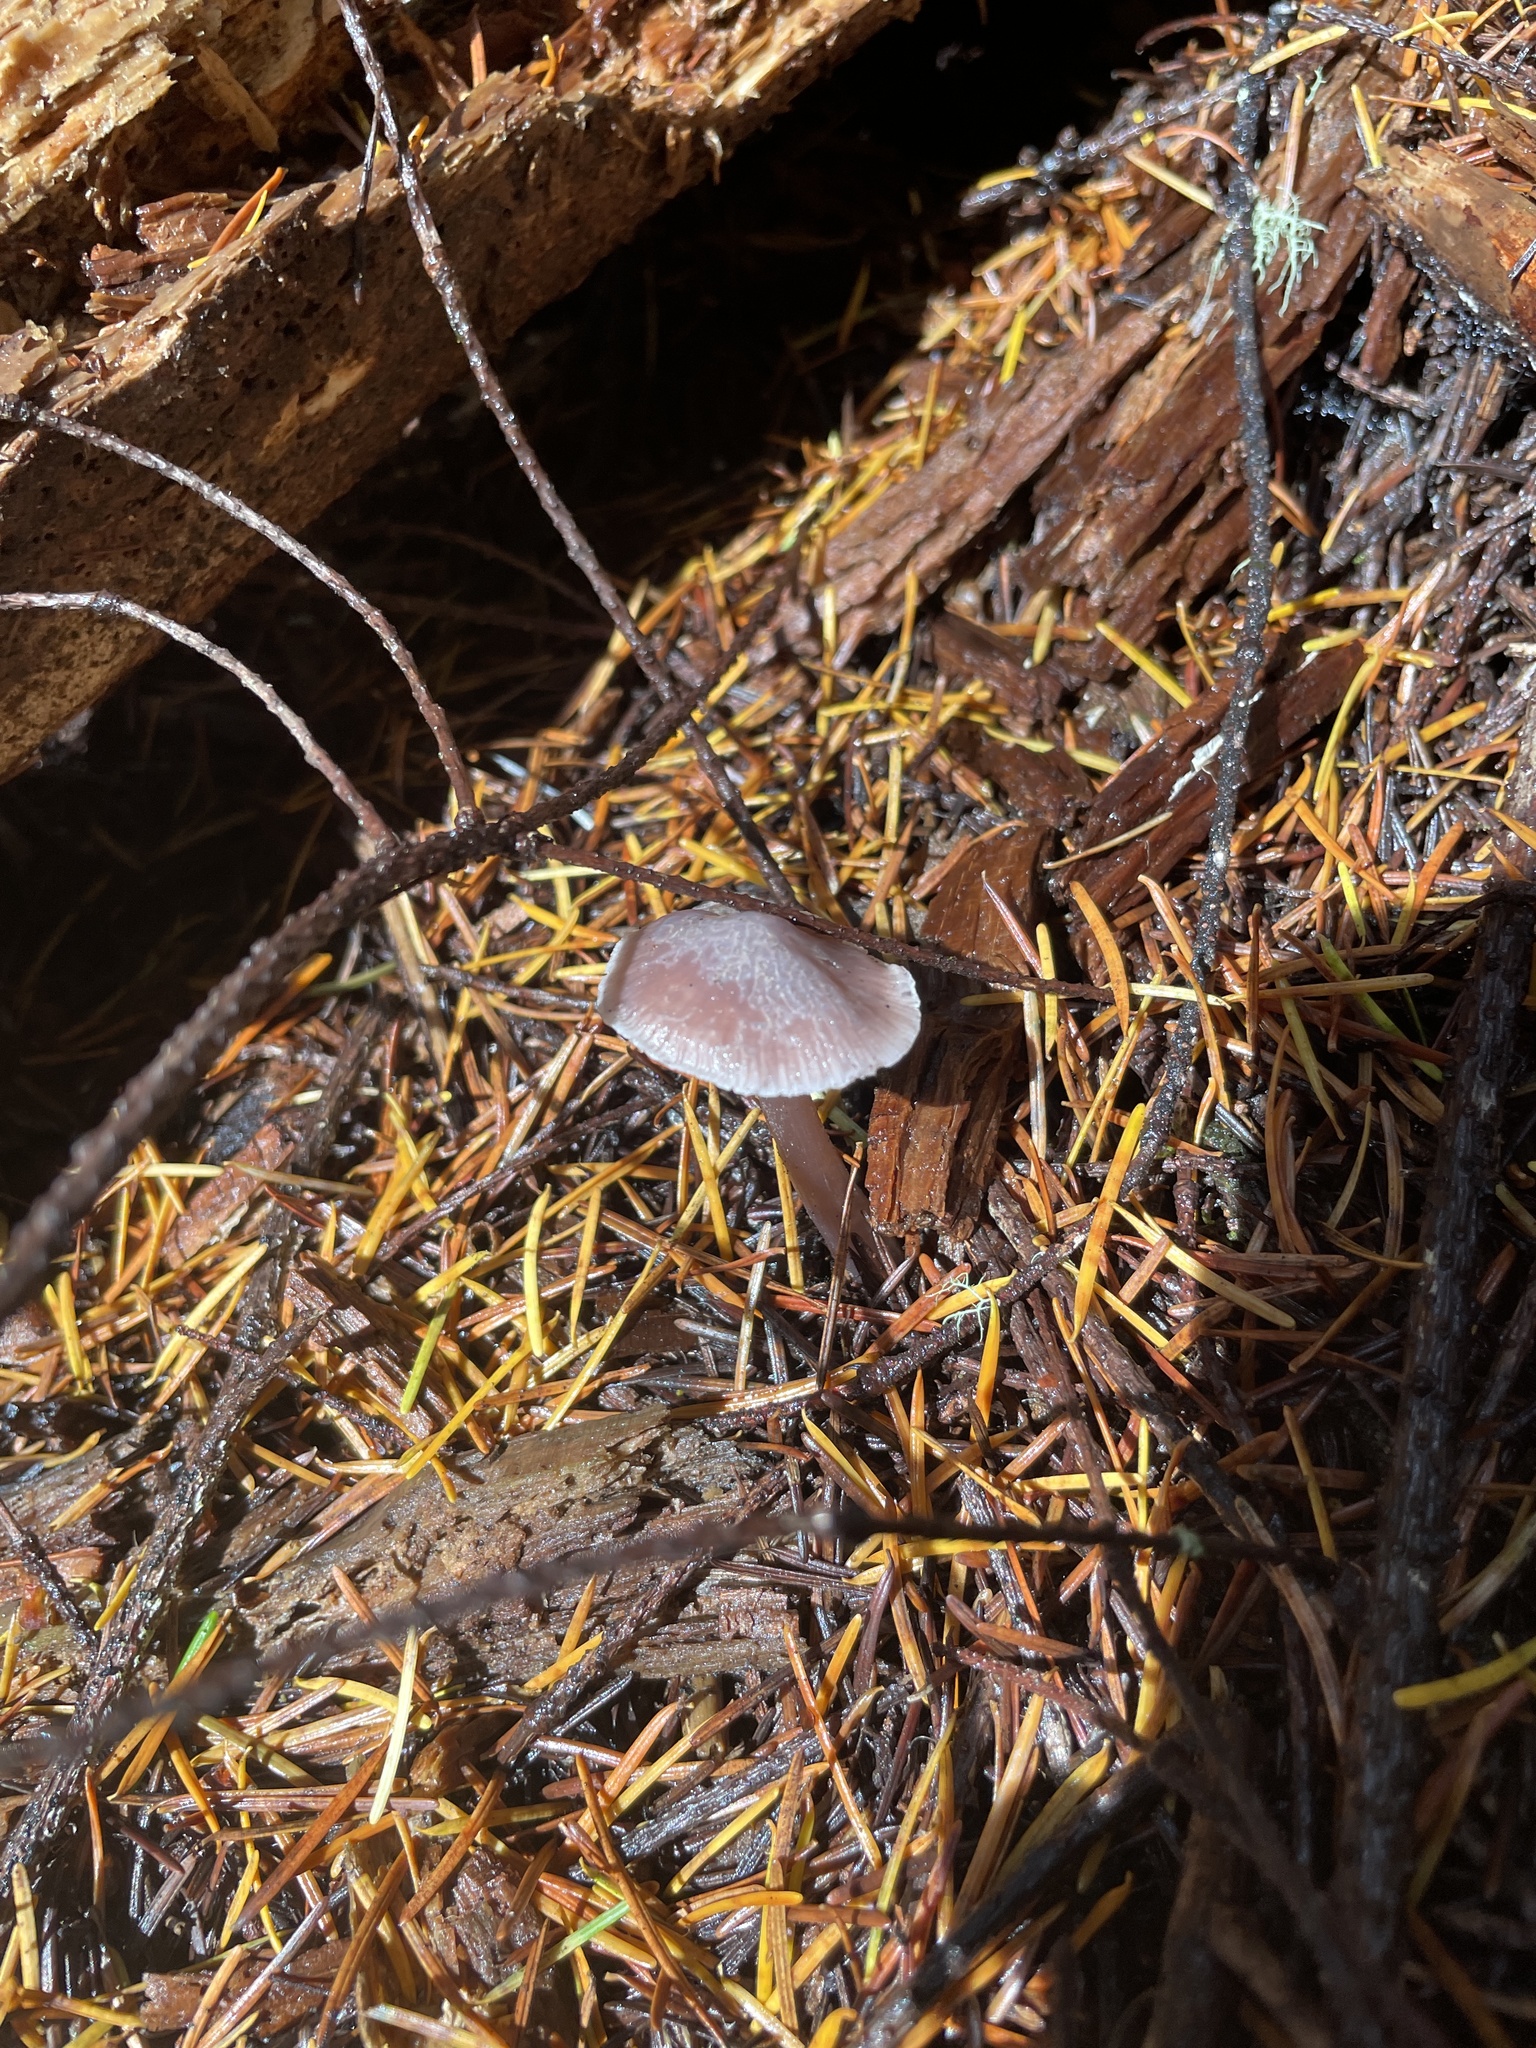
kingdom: Fungi
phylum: Basidiomycota
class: Agaricomycetes
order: Agaricales
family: Mycenaceae
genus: Mycena
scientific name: Mycena pura
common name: Lilac bonnet
